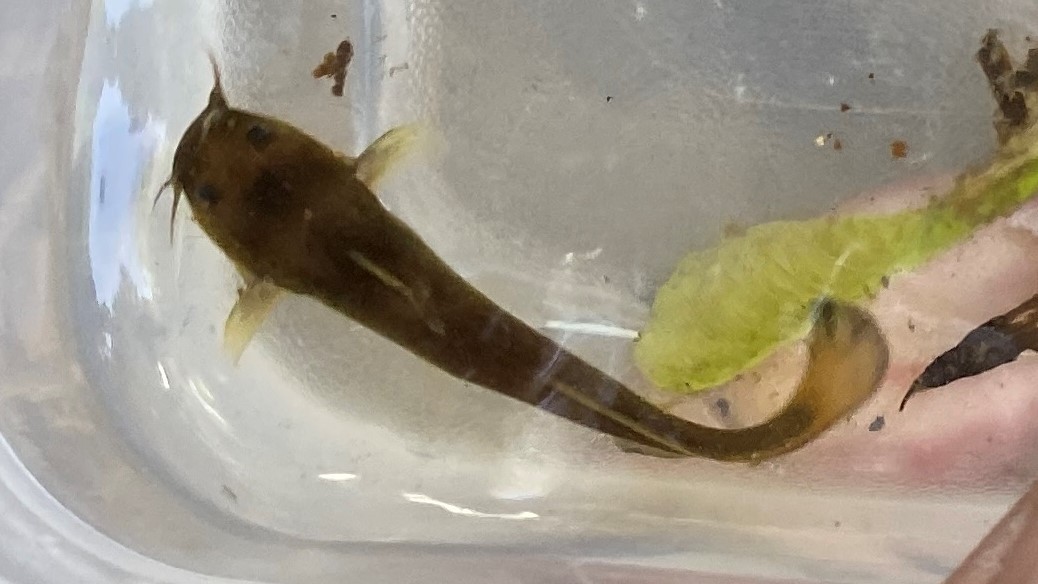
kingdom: Animalia
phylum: Chordata
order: Siluriformes
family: Ictaluridae
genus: Noturus
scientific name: Noturus exilis
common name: Slender madtom
